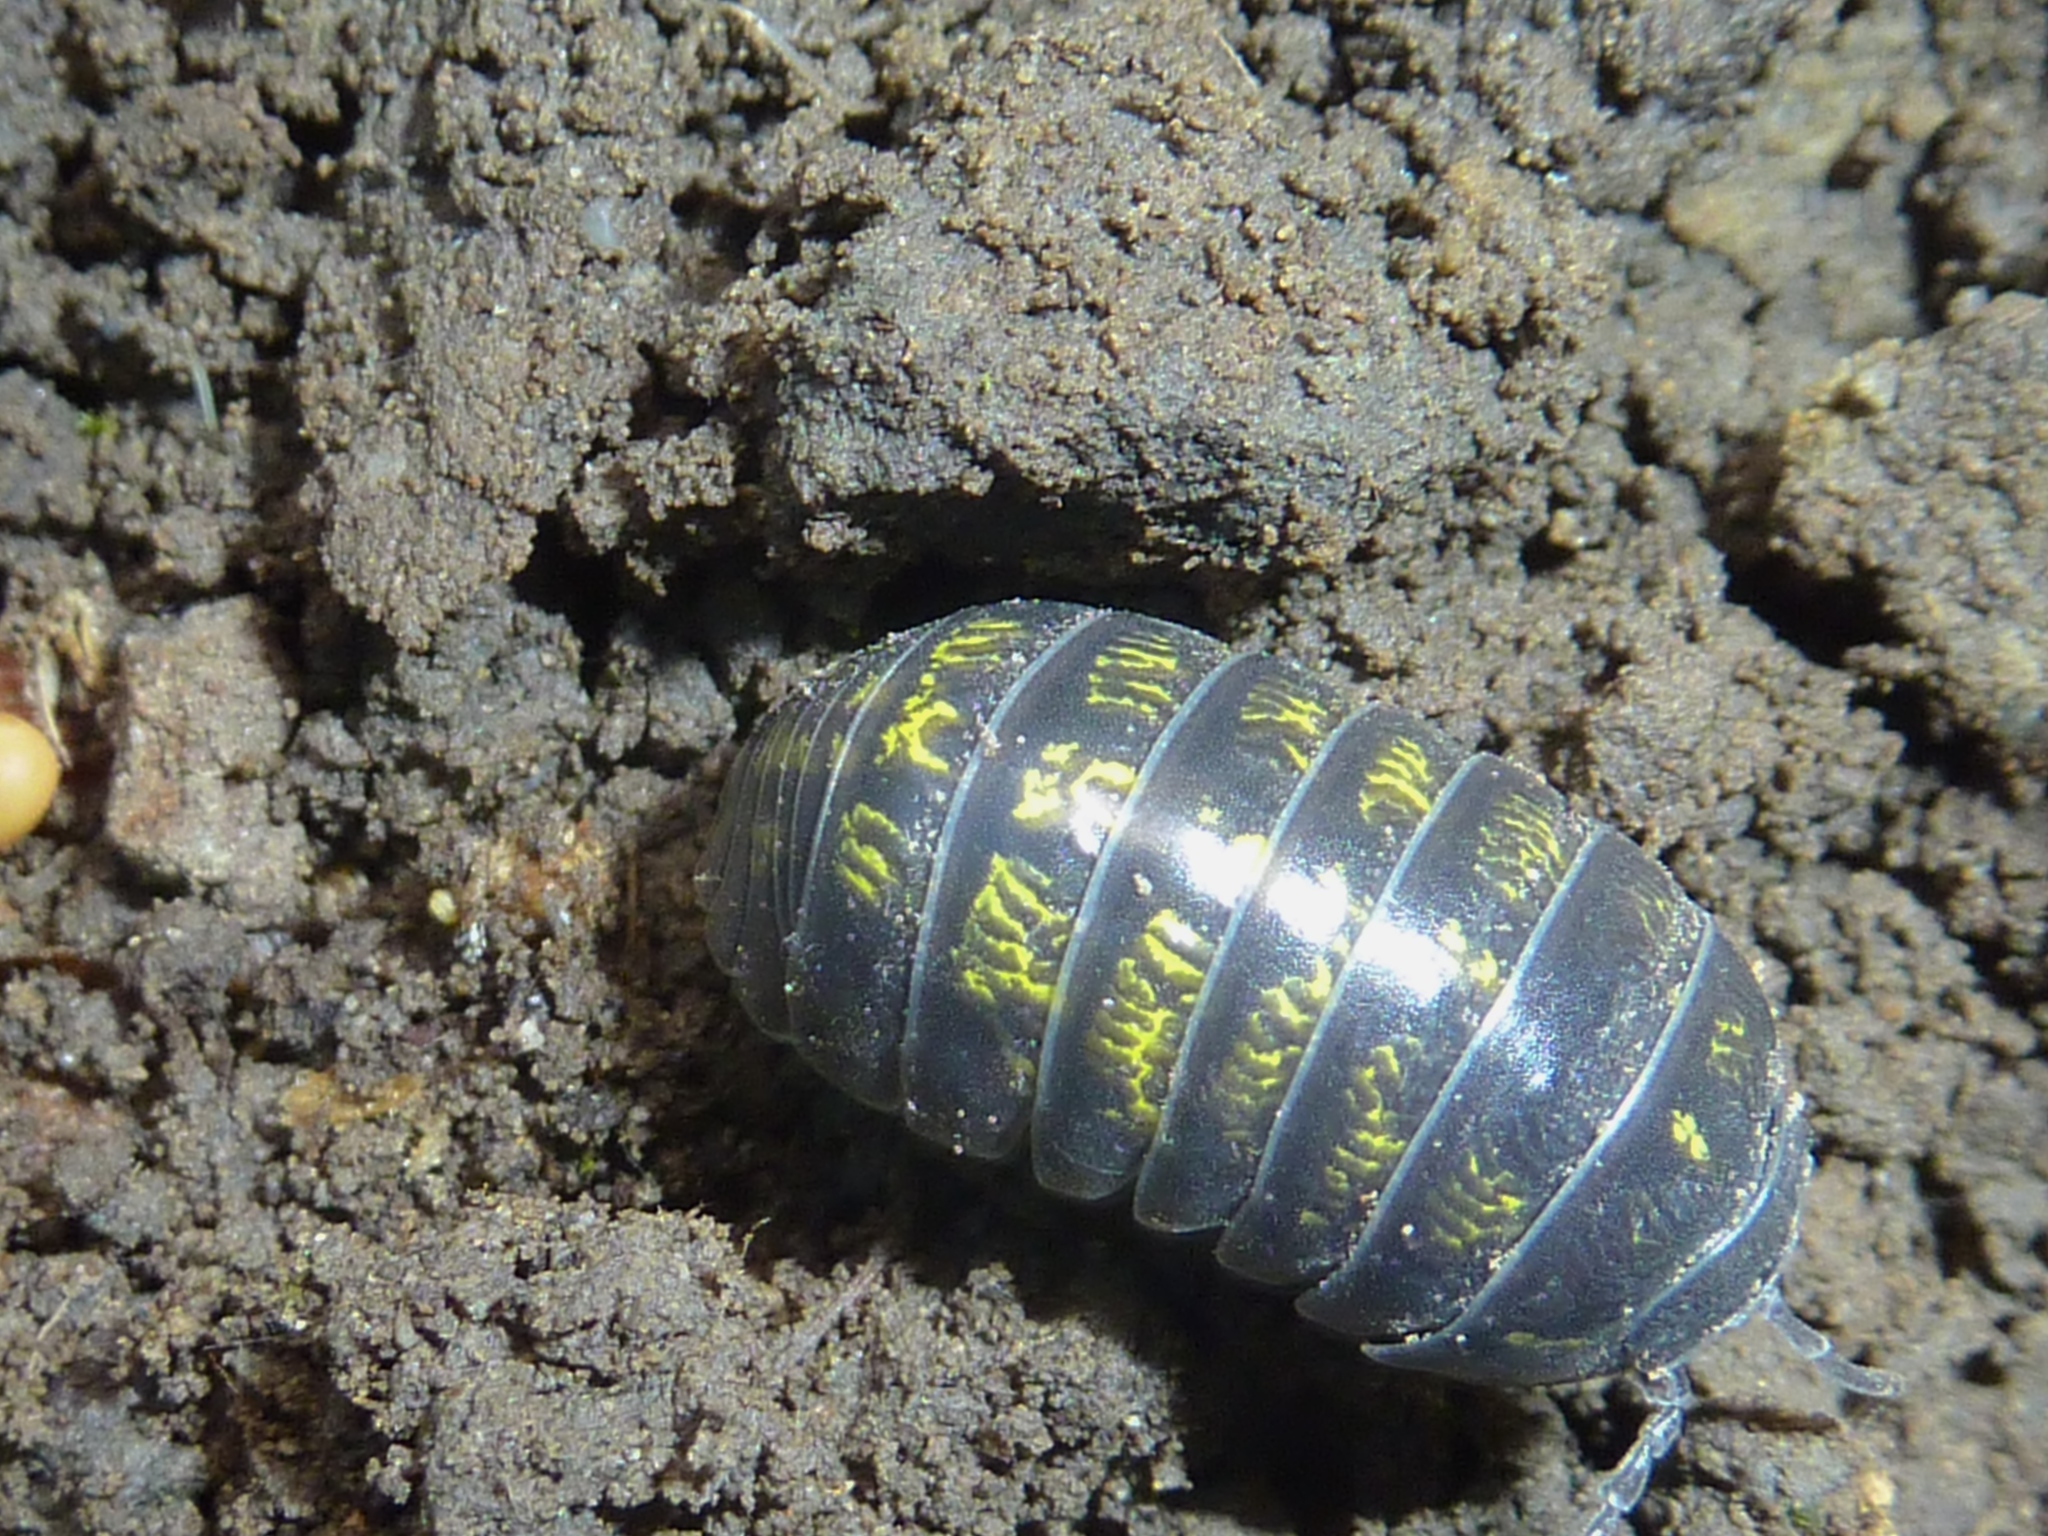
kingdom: Animalia
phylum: Arthropoda
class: Malacostraca
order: Isopoda
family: Armadillidiidae
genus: Armadillidium
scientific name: Armadillidium vulgare
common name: Common pill woodlouse
